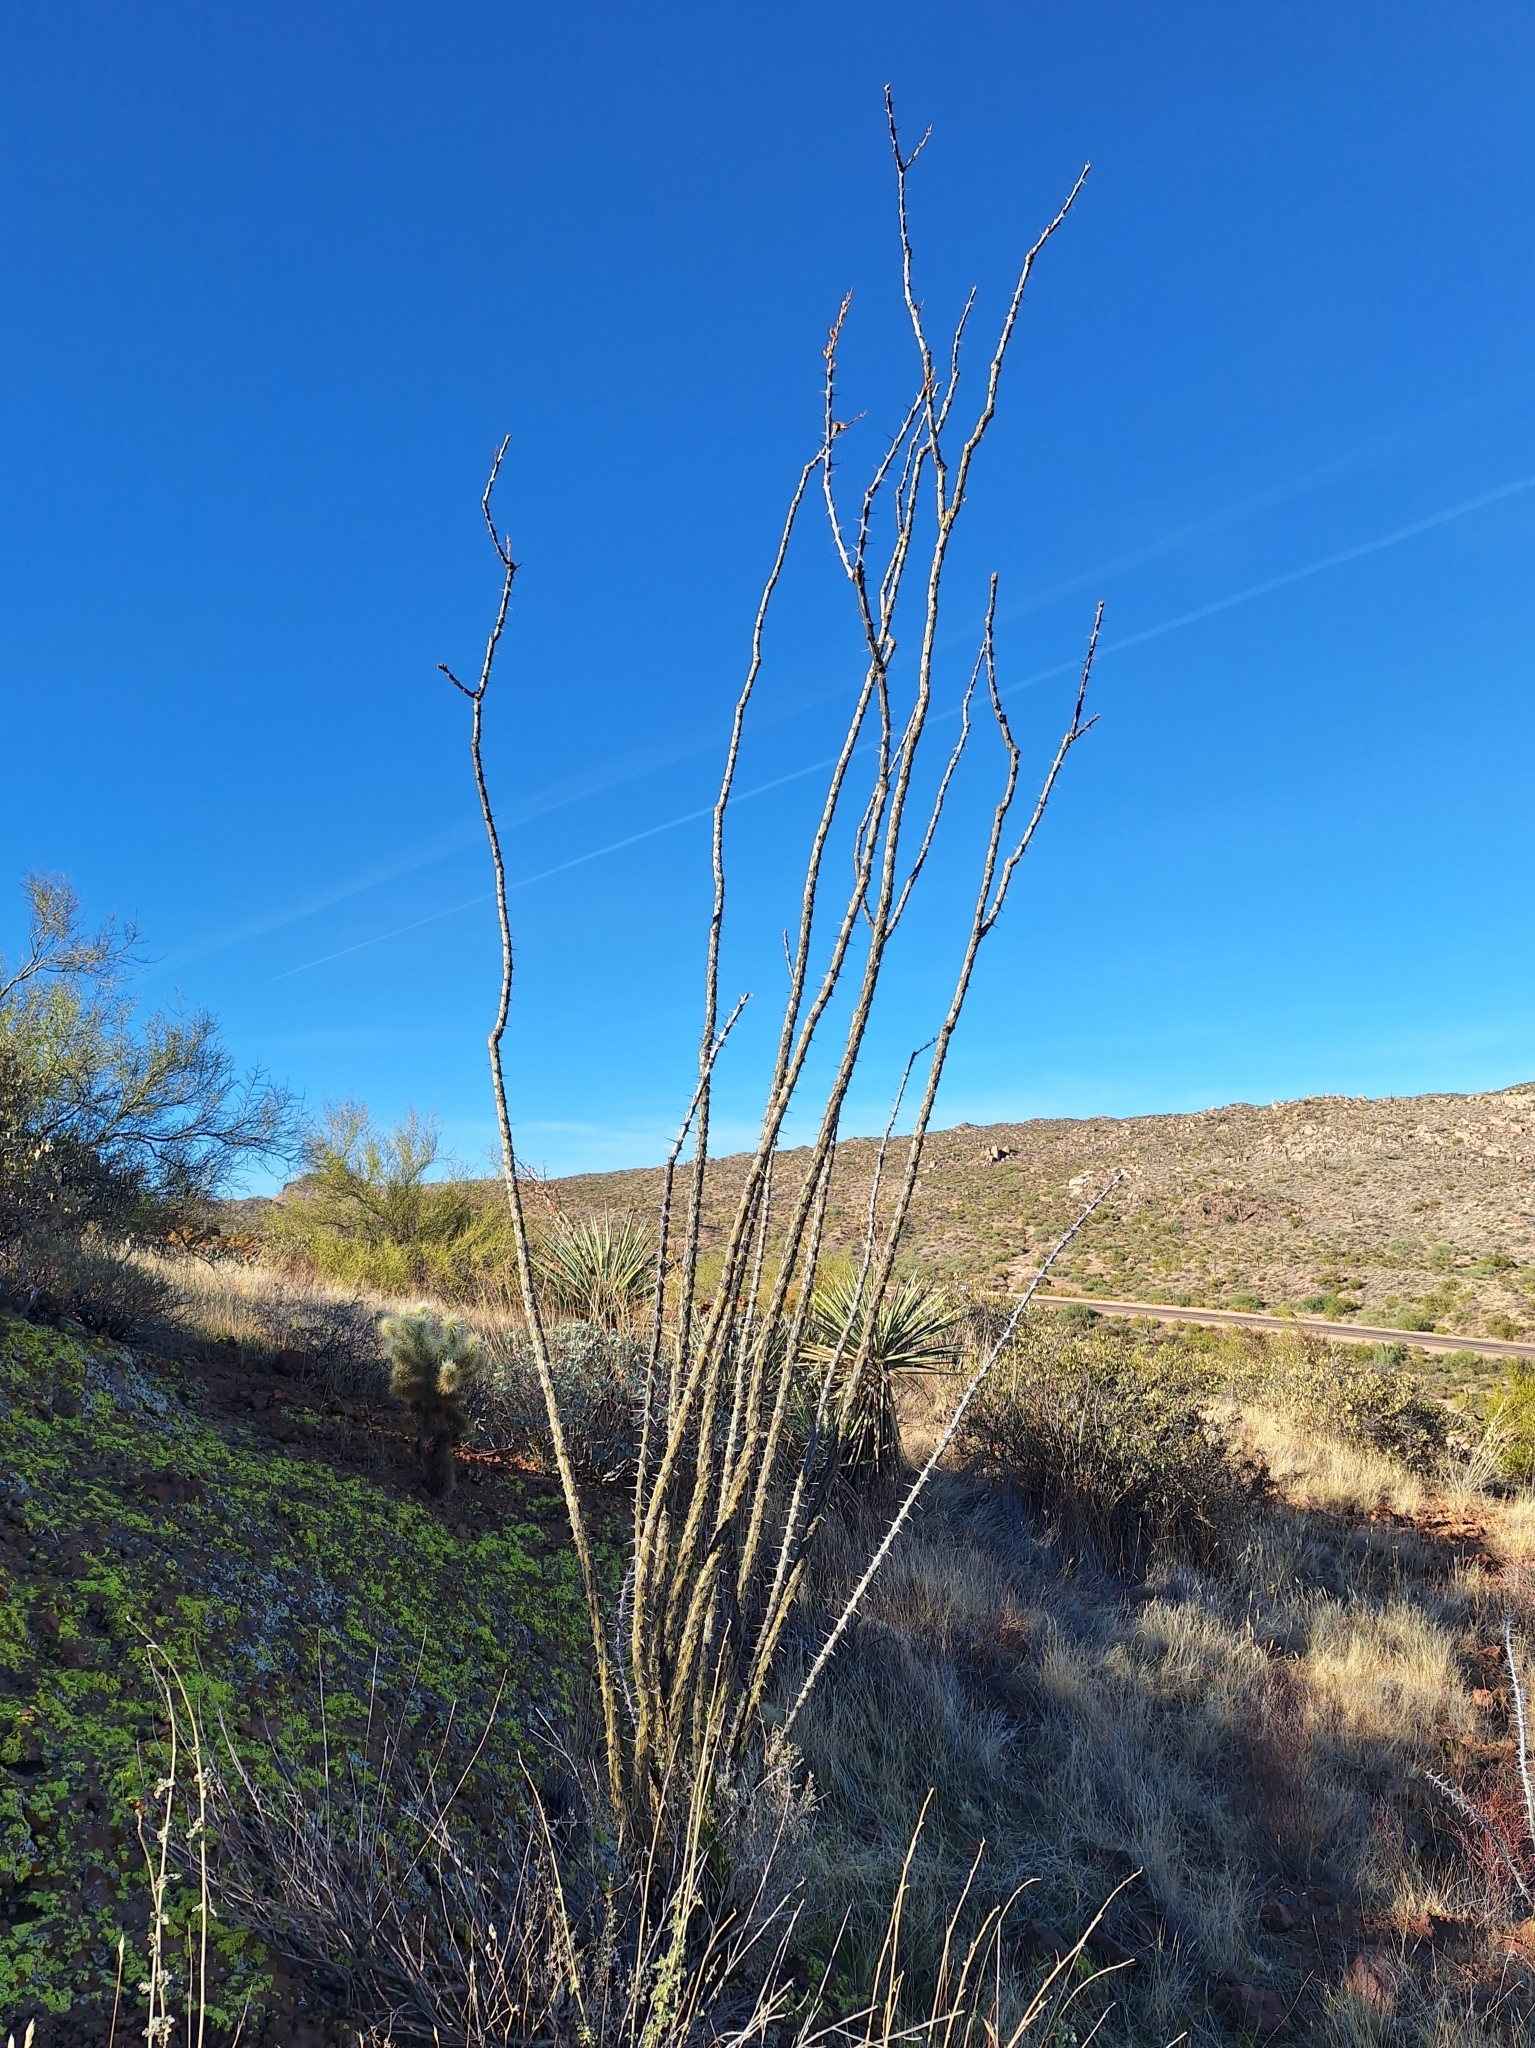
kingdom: Plantae
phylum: Tracheophyta
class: Magnoliopsida
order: Ericales
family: Fouquieriaceae
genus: Fouquieria
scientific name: Fouquieria splendens
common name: Vine-cactus
